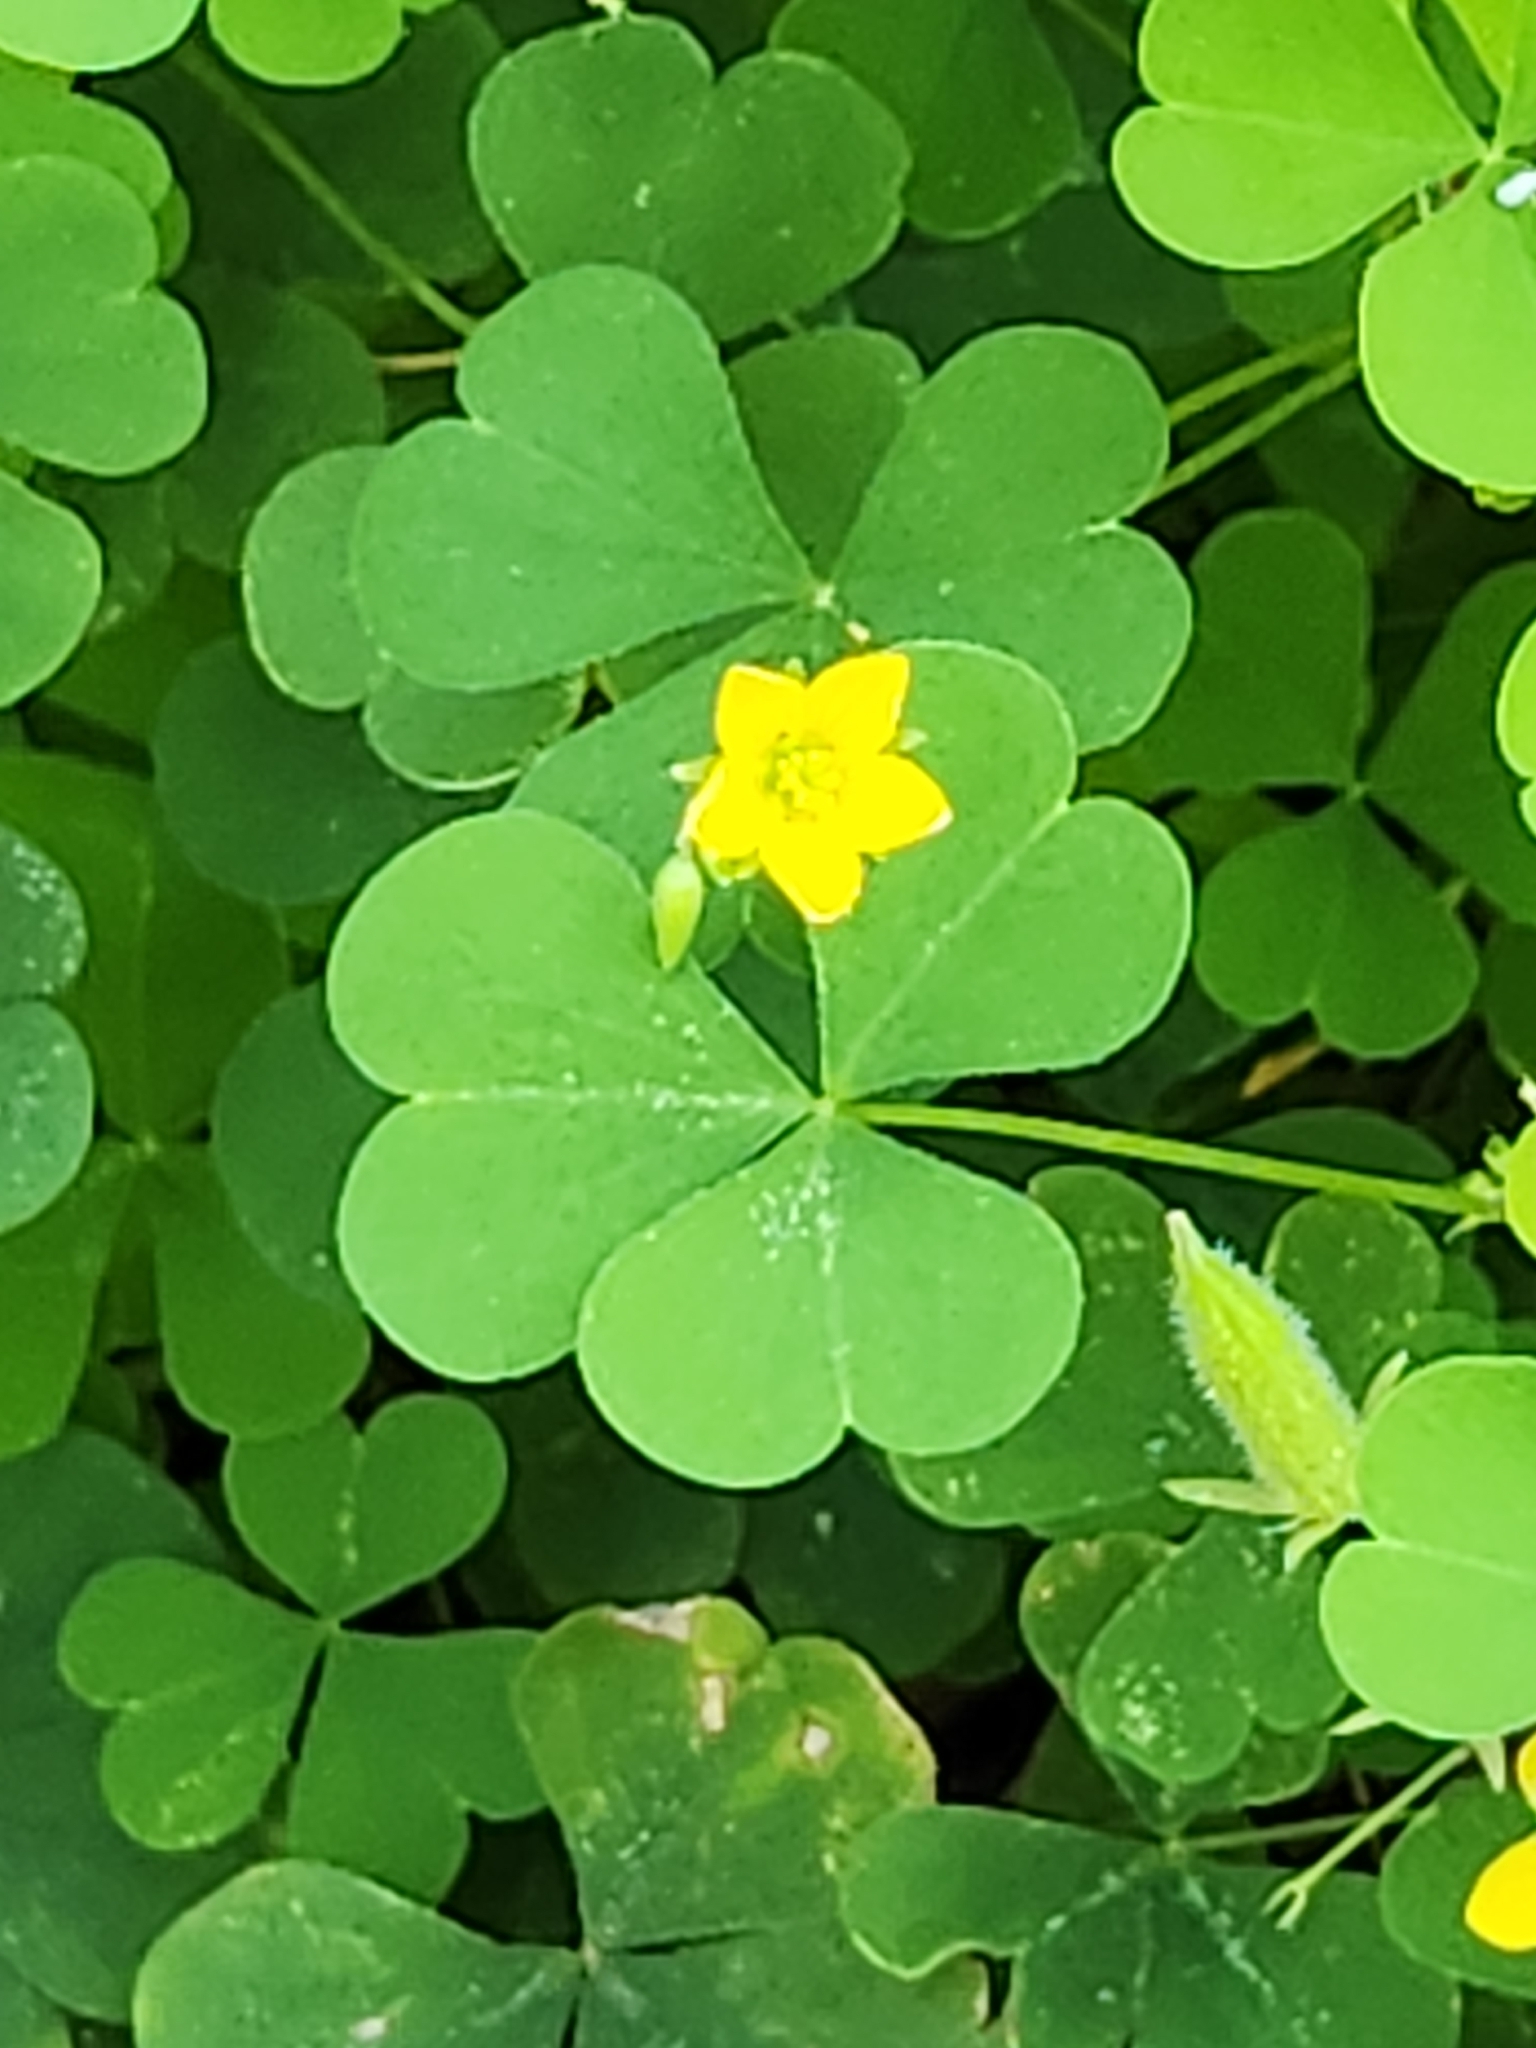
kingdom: Plantae
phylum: Tracheophyta
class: Magnoliopsida
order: Oxalidales
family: Oxalidaceae
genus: Oxalis
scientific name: Oxalis stricta
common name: Upright yellow-sorrel
